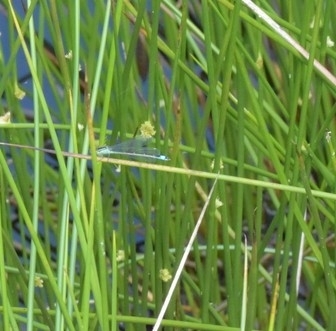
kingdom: Animalia
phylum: Arthropoda
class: Insecta
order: Odonata
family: Coenagrionidae
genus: Ischnura
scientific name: Ischnura elegans
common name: Blue-tailed damselfly
